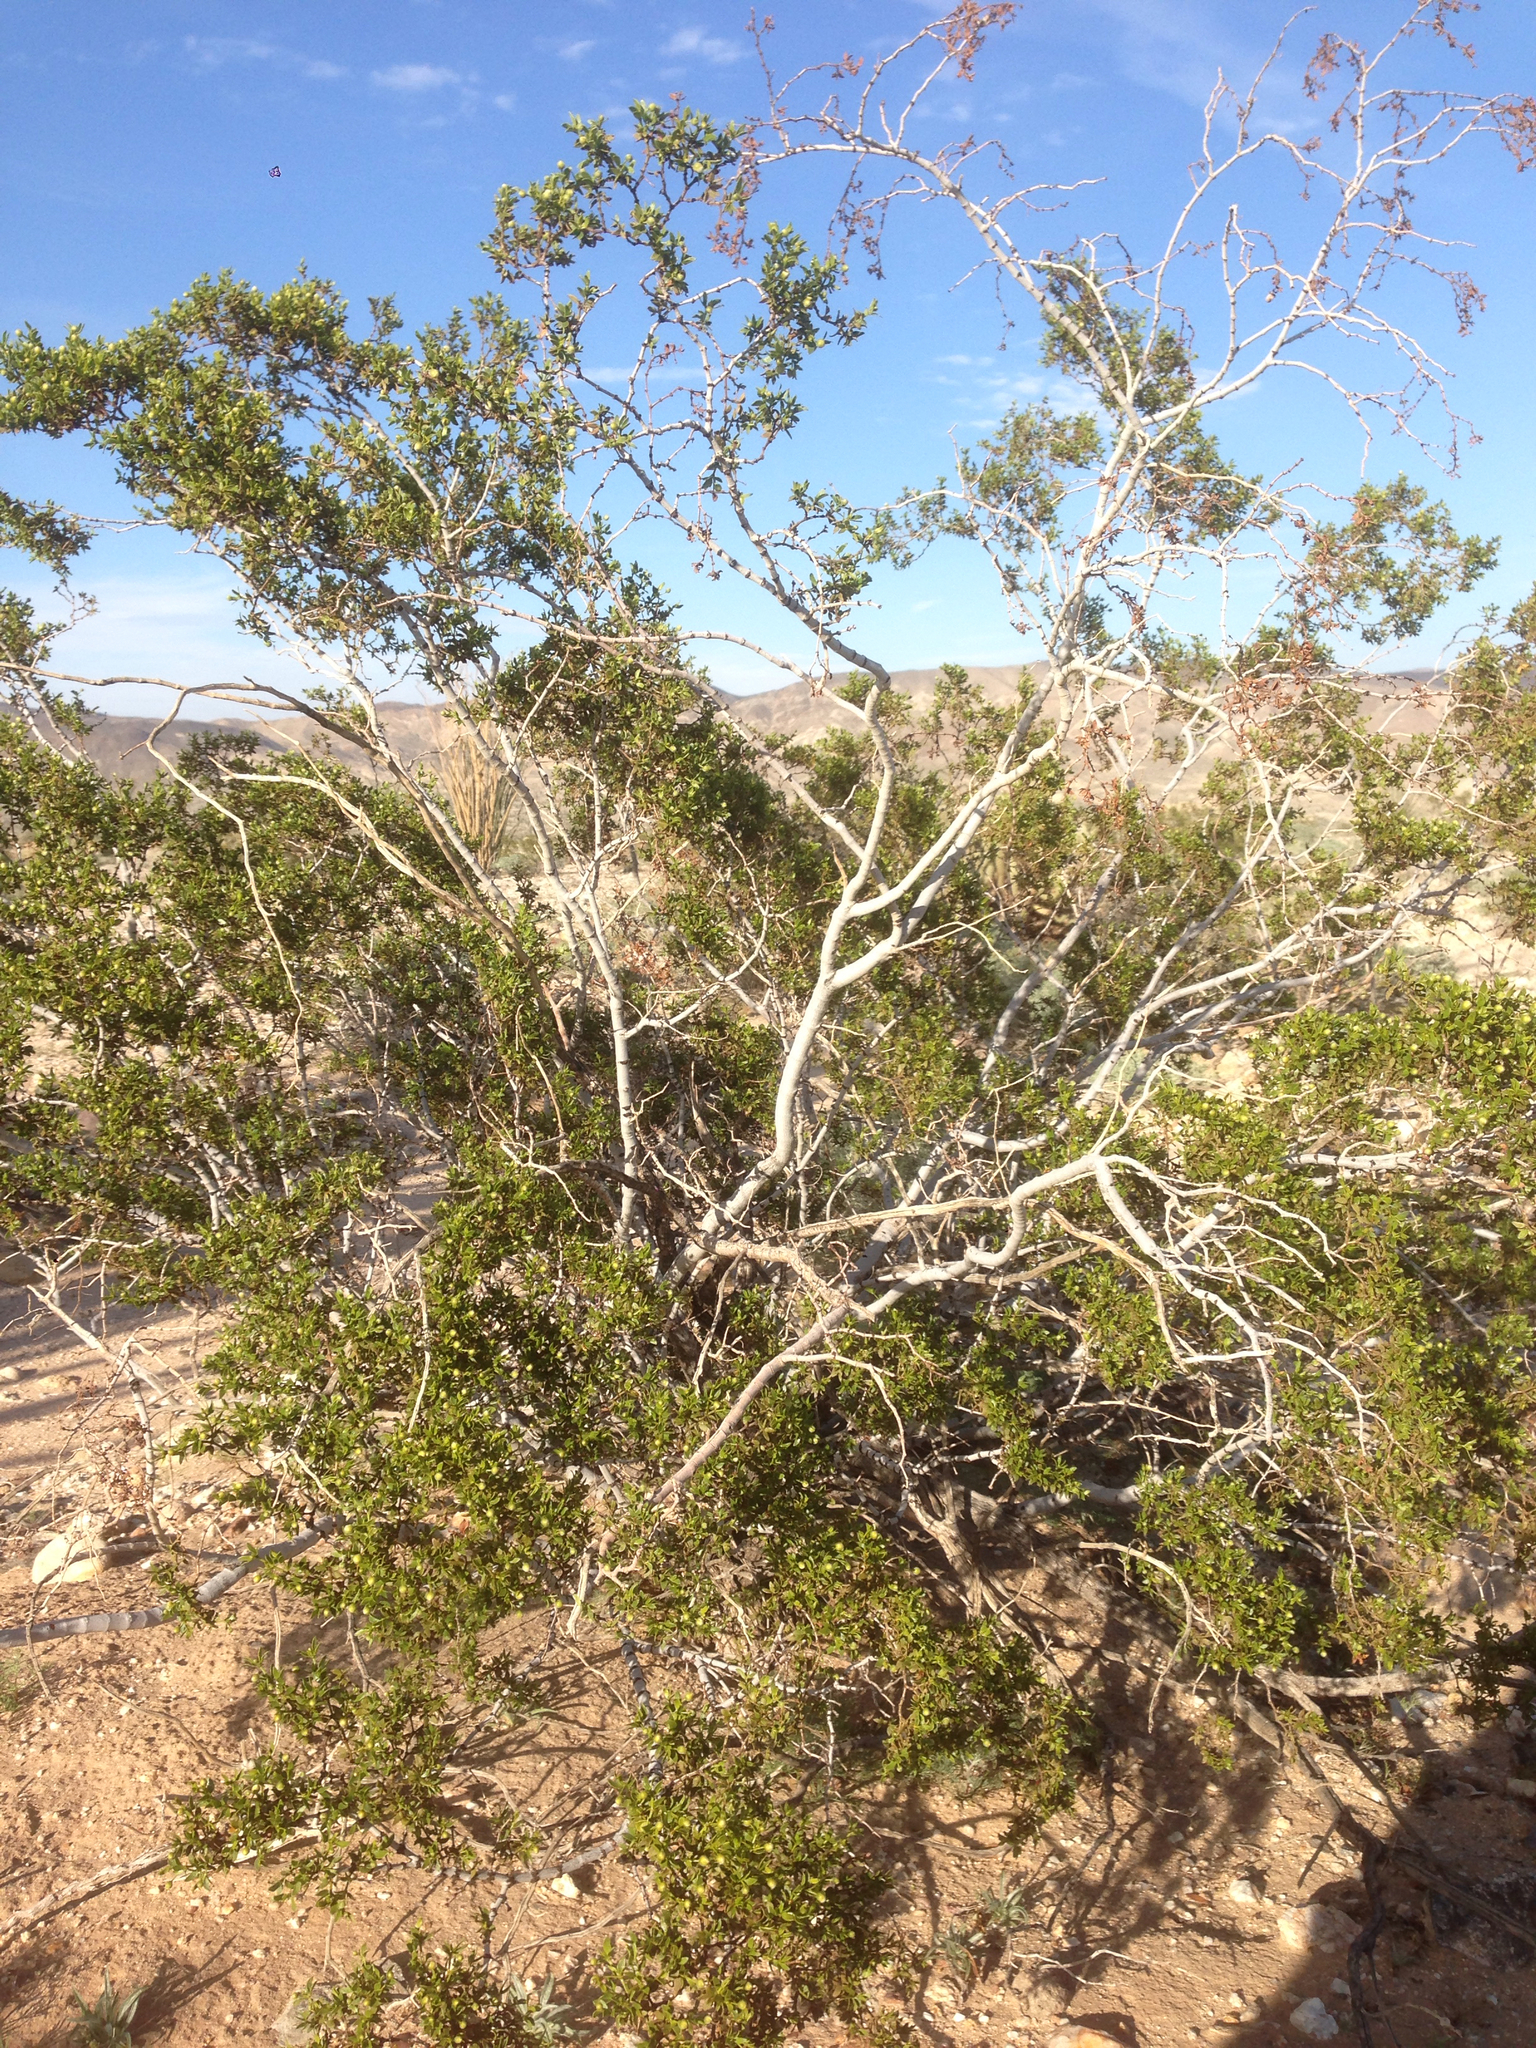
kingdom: Plantae
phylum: Tracheophyta
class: Magnoliopsida
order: Zygophyllales
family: Zygophyllaceae
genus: Larrea
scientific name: Larrea tridentata
